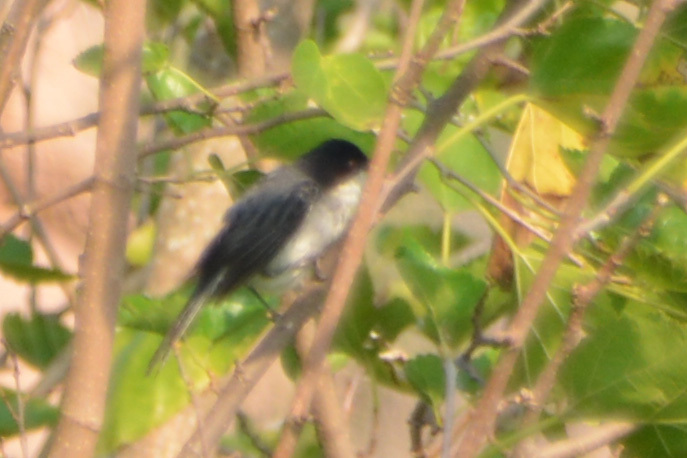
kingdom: Animalia
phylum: Chordata
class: Aves
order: Passeriformes
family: Thraupidae
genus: Microspingus
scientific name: Microspingus melanoleucus
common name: Black-capped warbling-finch
